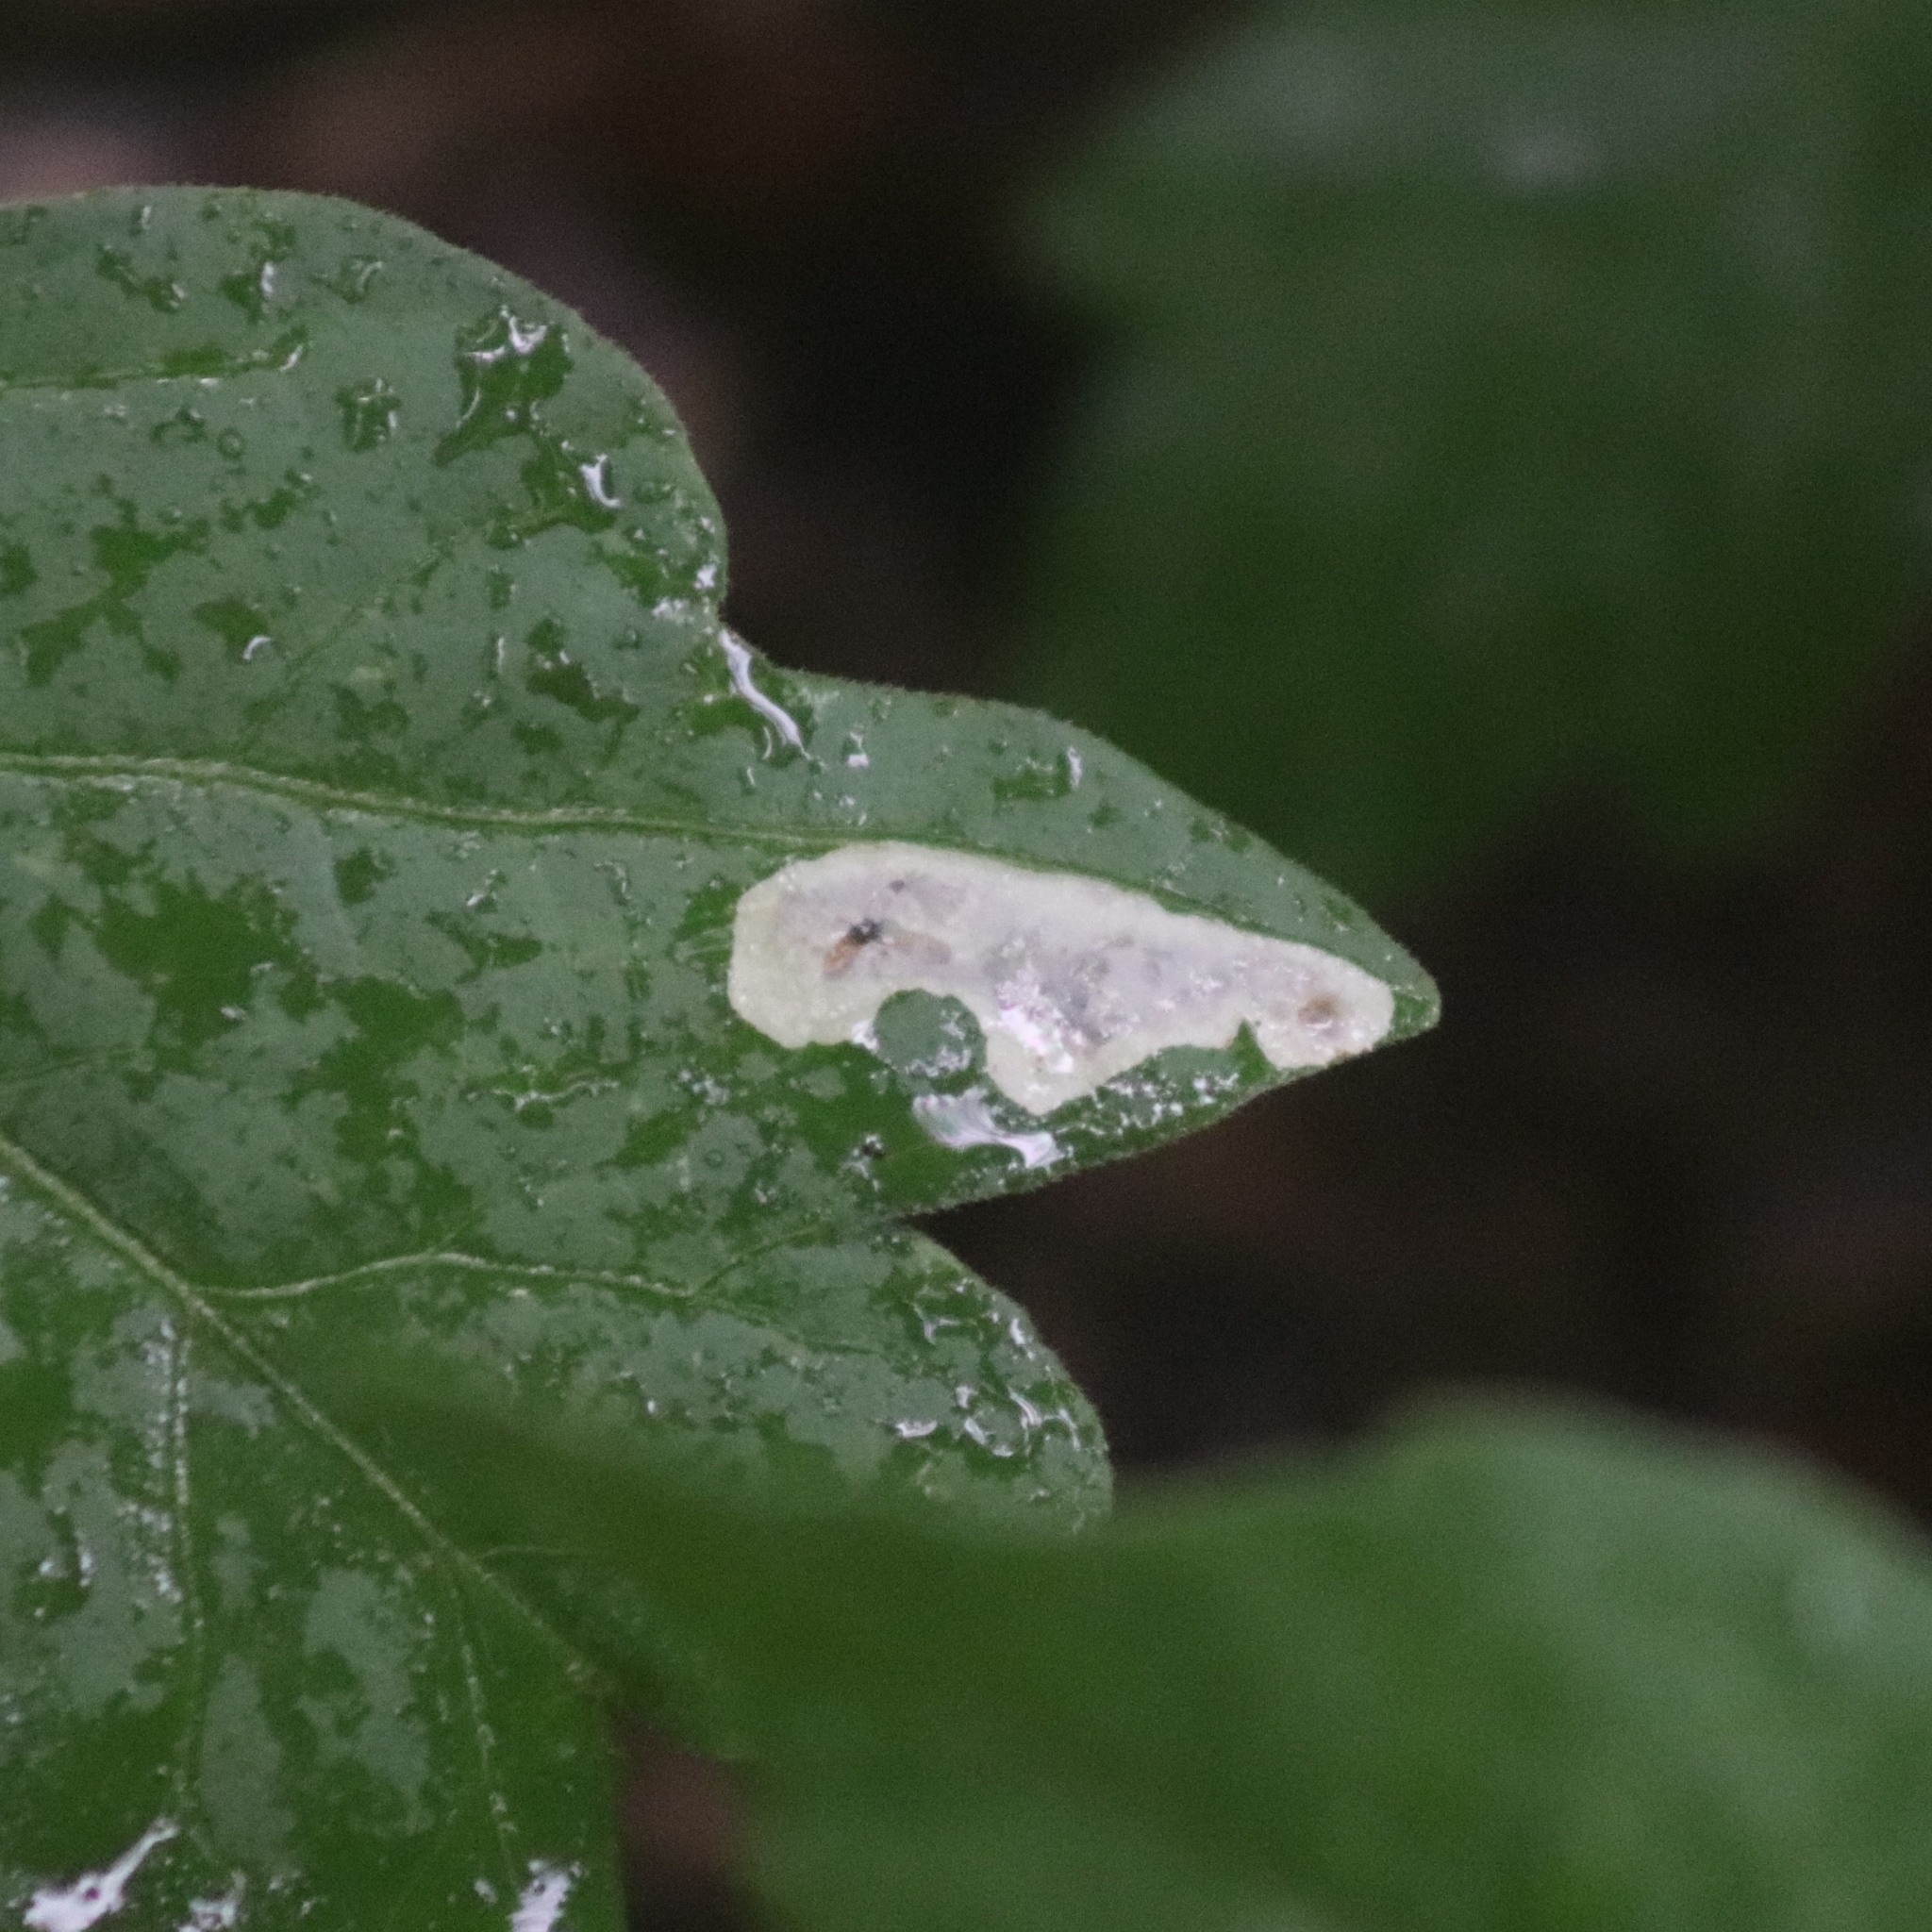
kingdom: Animalia
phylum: Arthropoda
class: Insecta
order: Lepidoptera
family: Gracillariidae
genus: Cameraria
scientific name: Cameraria guttifinitella
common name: Poison ivy leaf-miner moth
